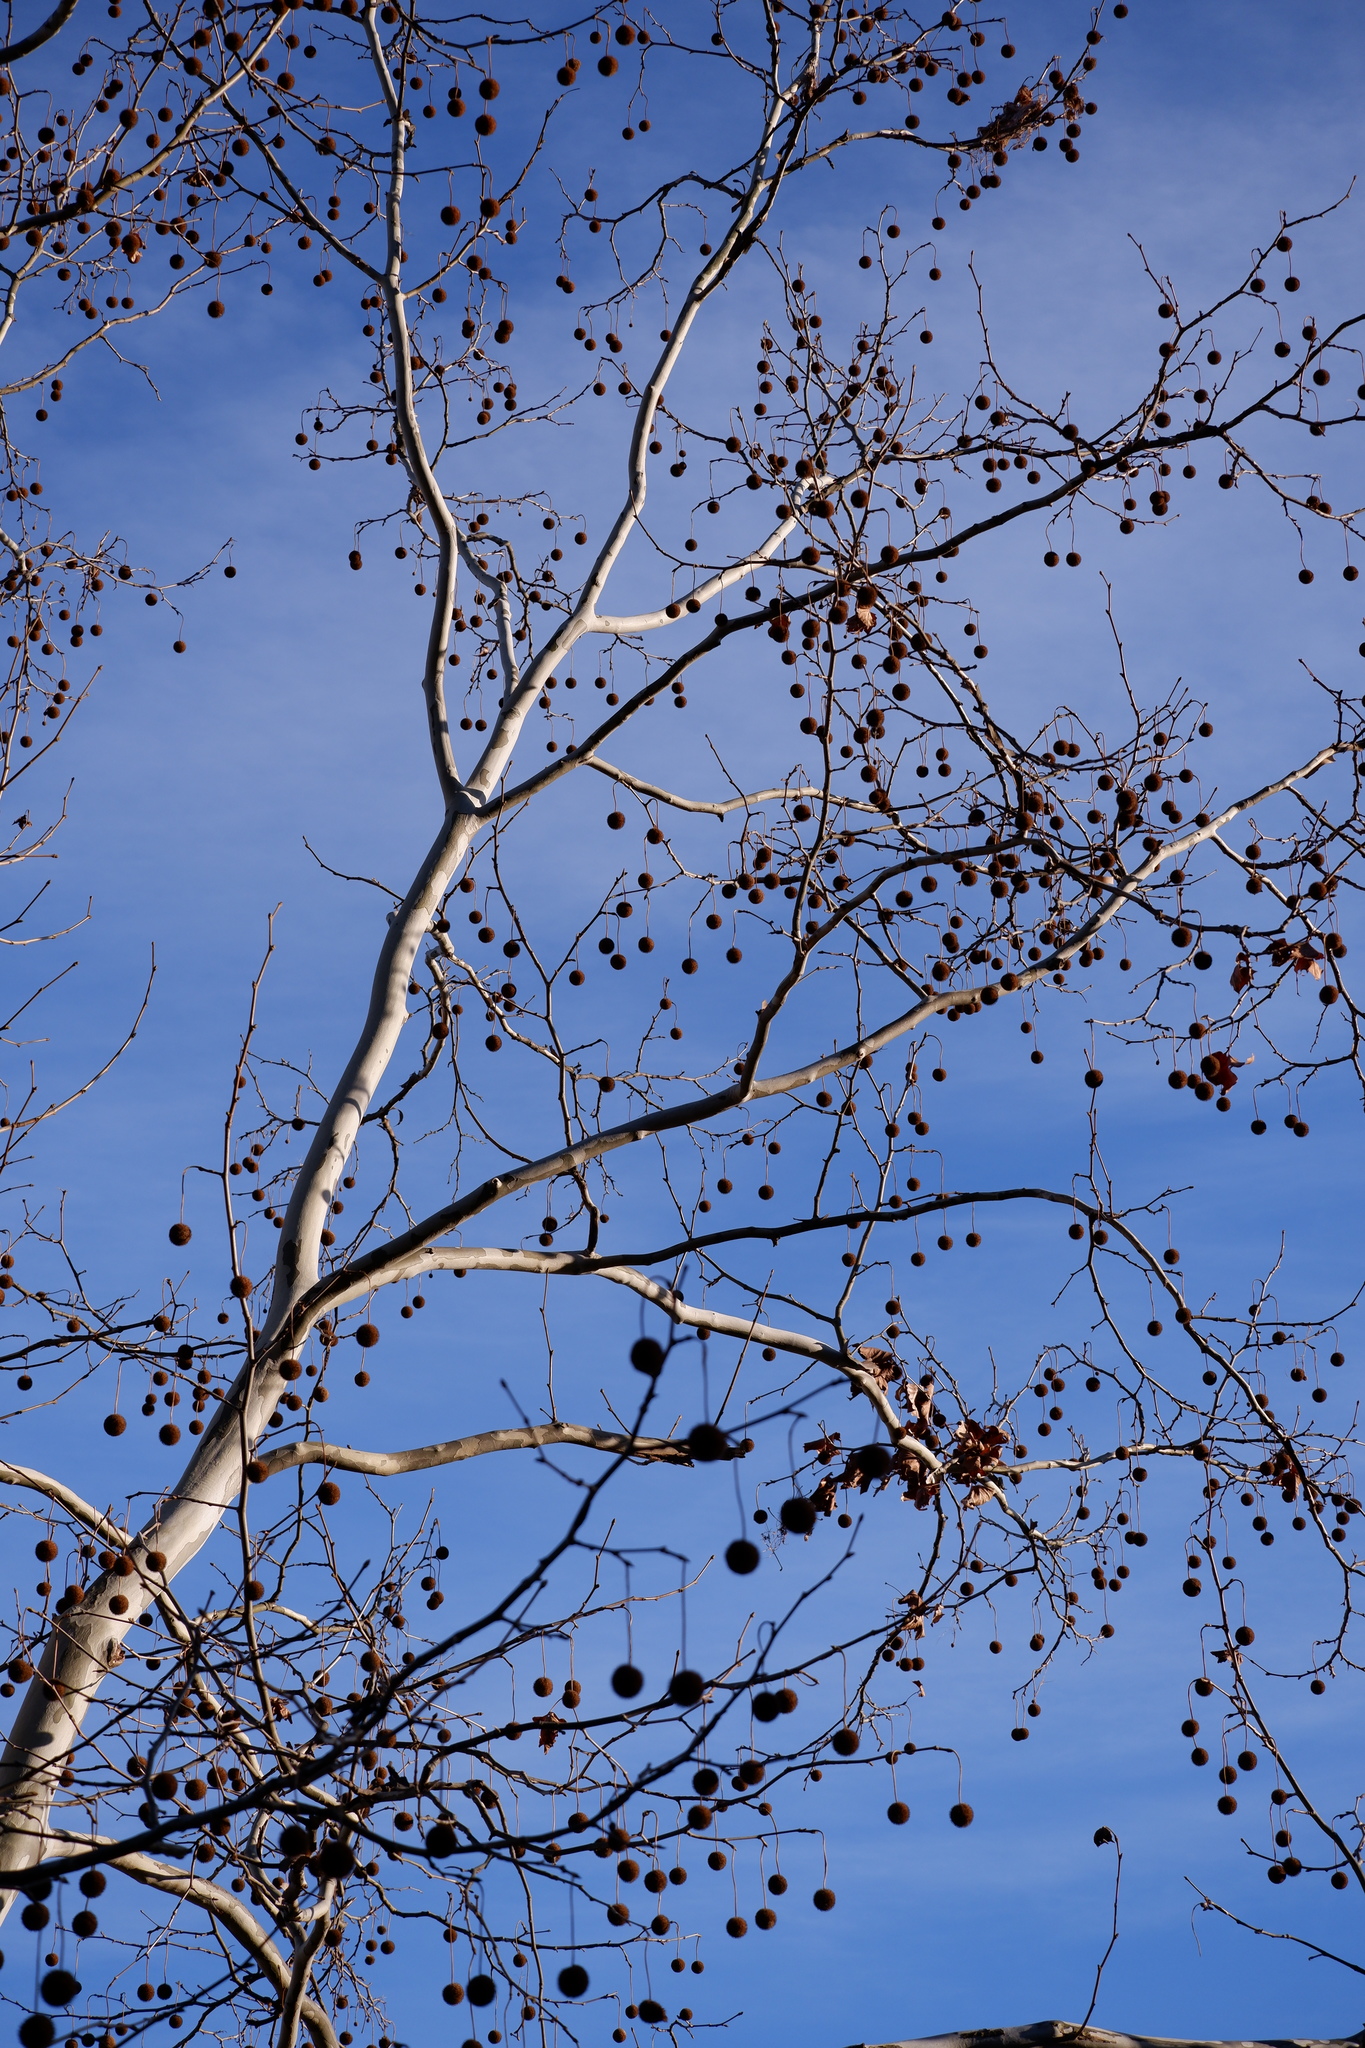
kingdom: Plantae
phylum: Tracheophyta
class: Magnoliopsida
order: Proteales
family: Platanaceae
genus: Platanus
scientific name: Platanus occidentalis
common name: American sycamore
